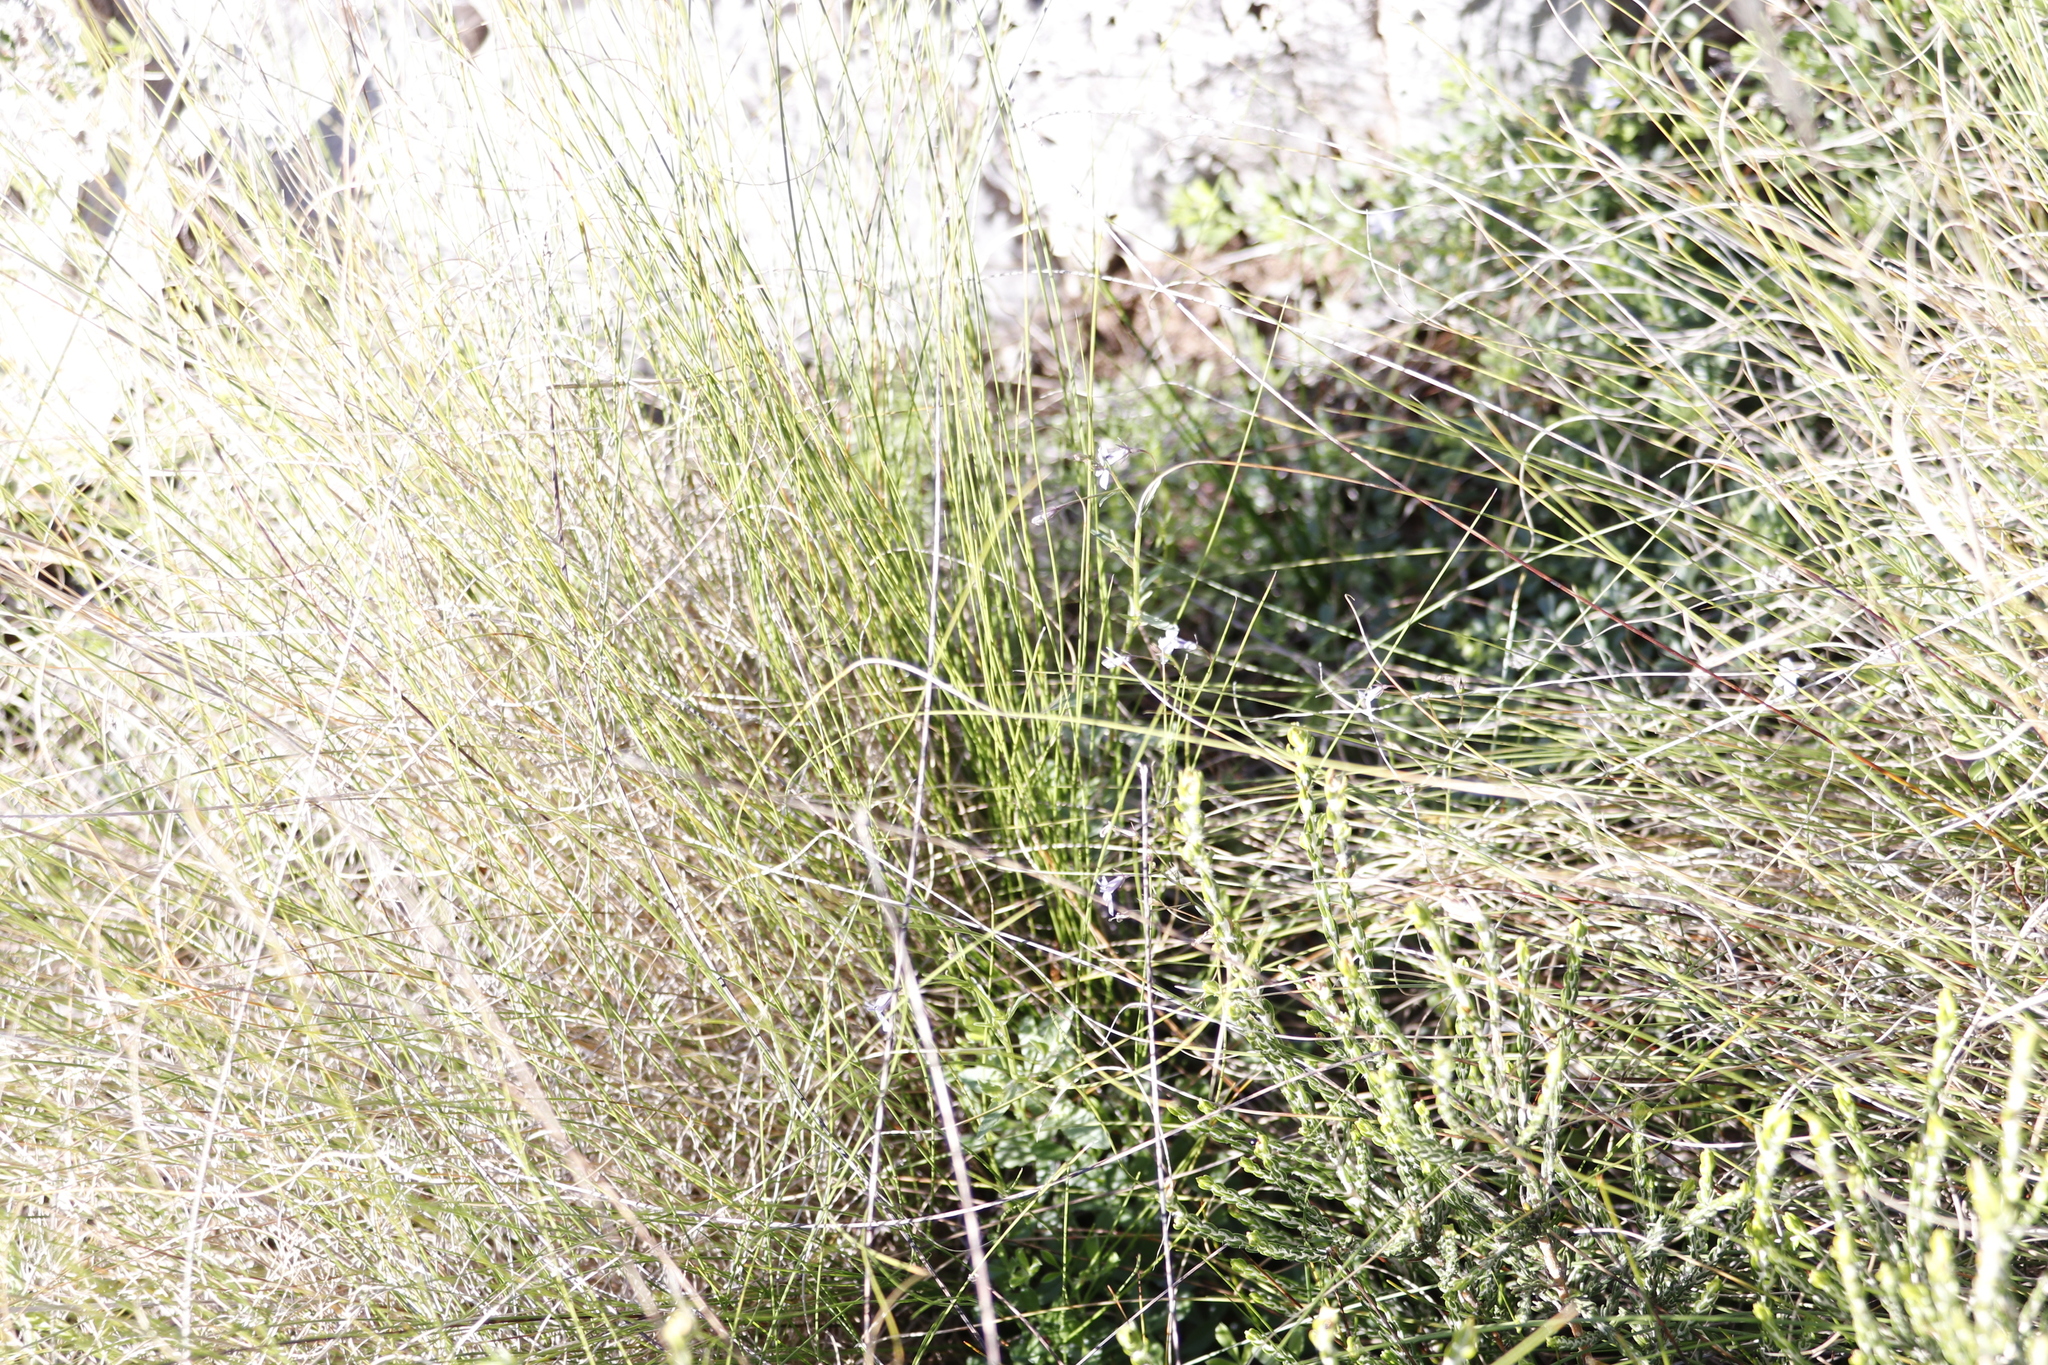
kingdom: Plantae
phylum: Tracheophyta
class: Magnoliopsida
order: Asterales
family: Campanulaceae
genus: Lobelia
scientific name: Lobelia erinus
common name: Edging lobelia
